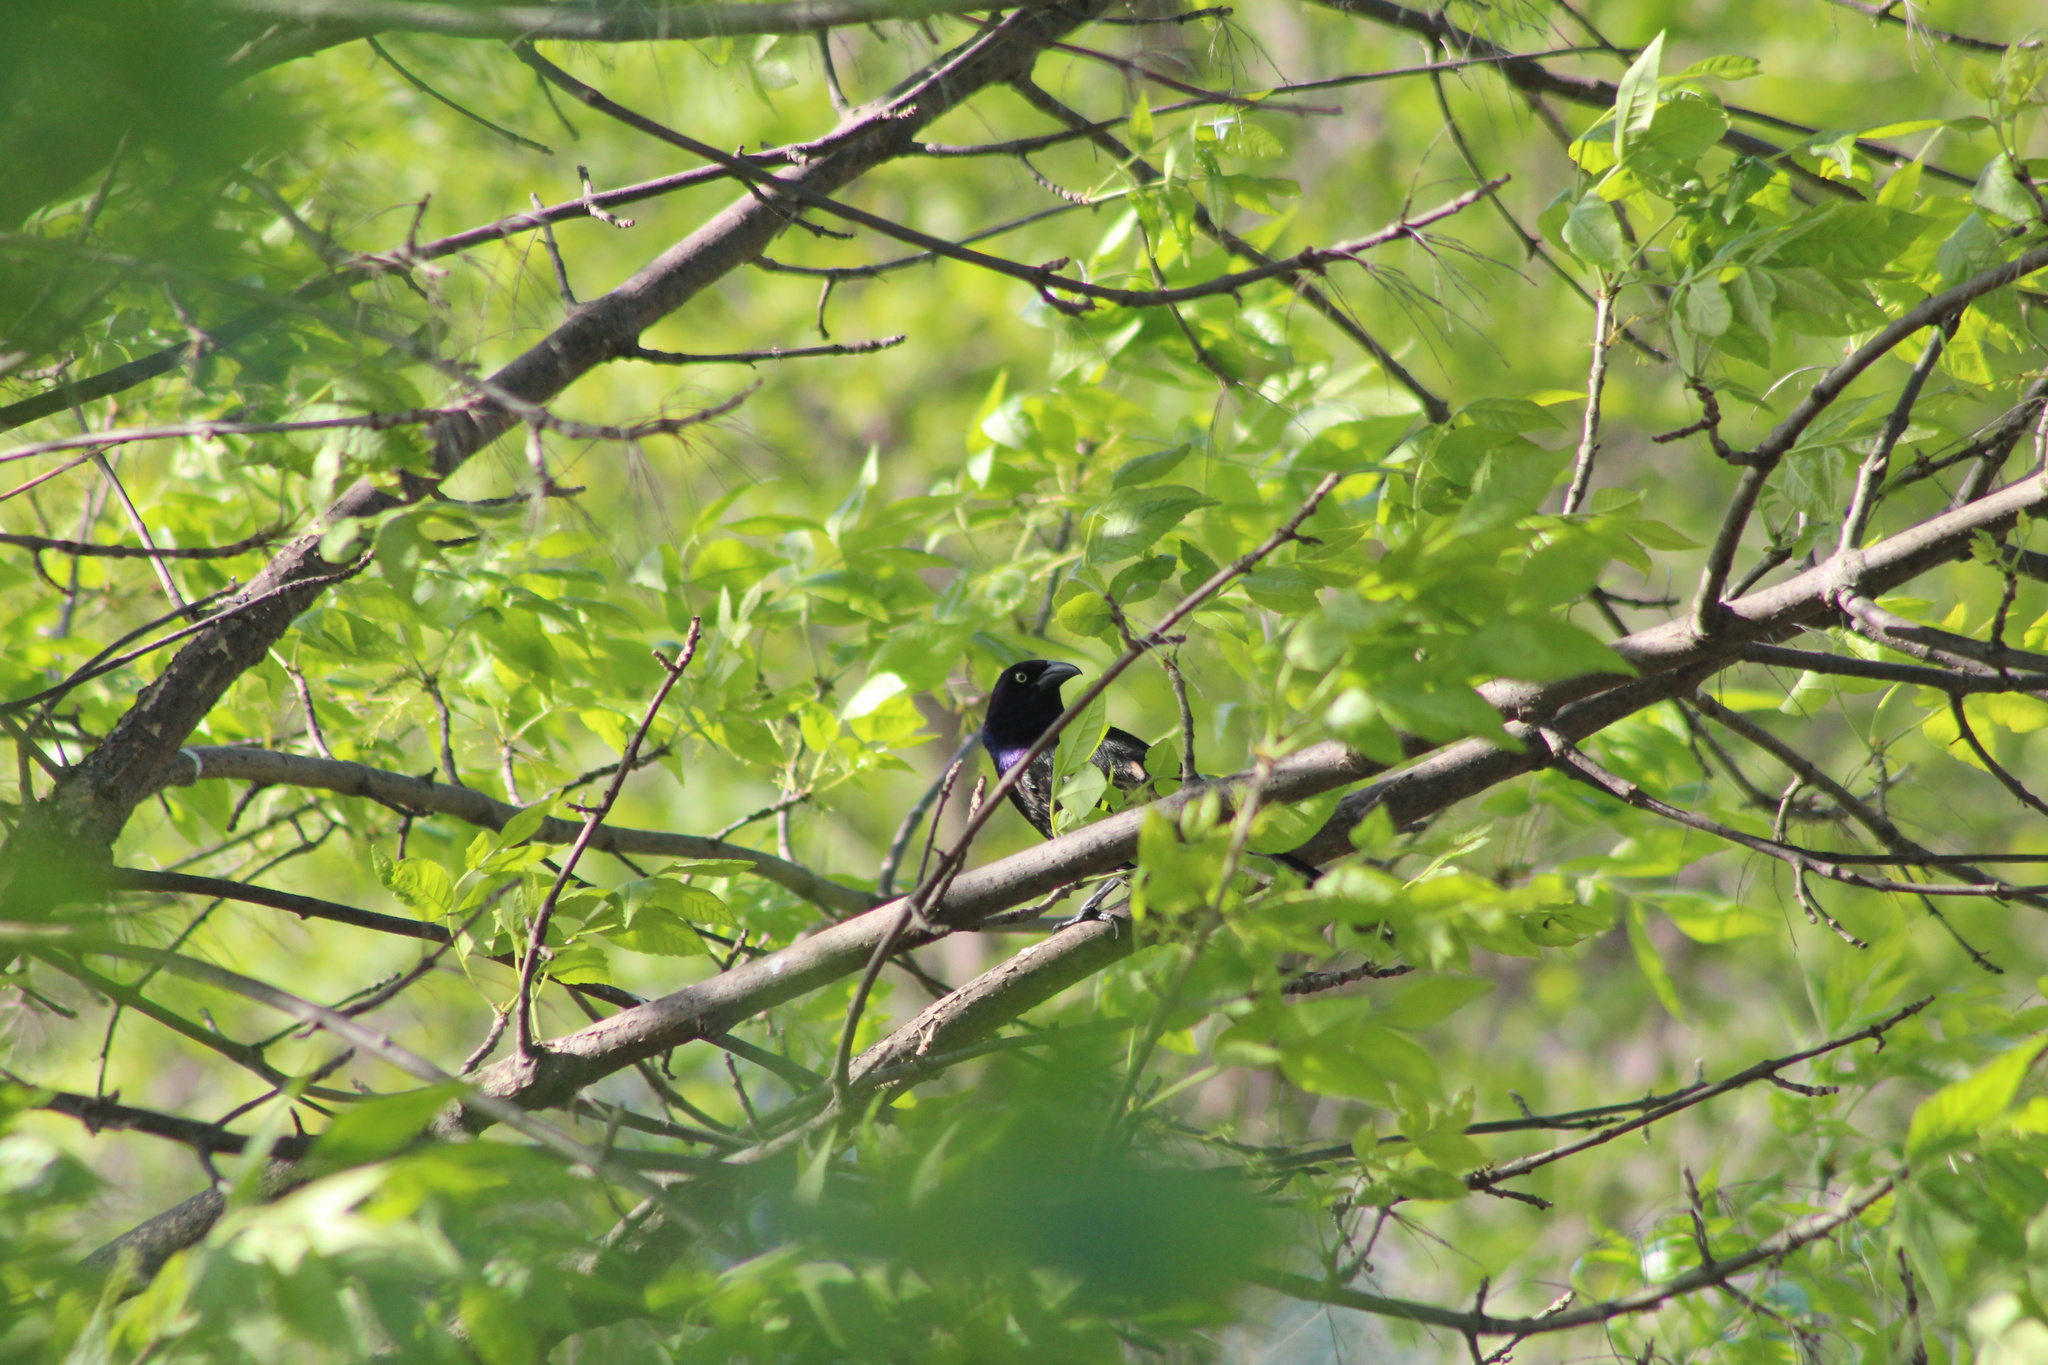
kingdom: Animalia
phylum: Chordata
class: Aves
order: Passeriformes
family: Icteridae
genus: Quiscalus
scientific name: Quiscalus quiscula
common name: Common grackle
